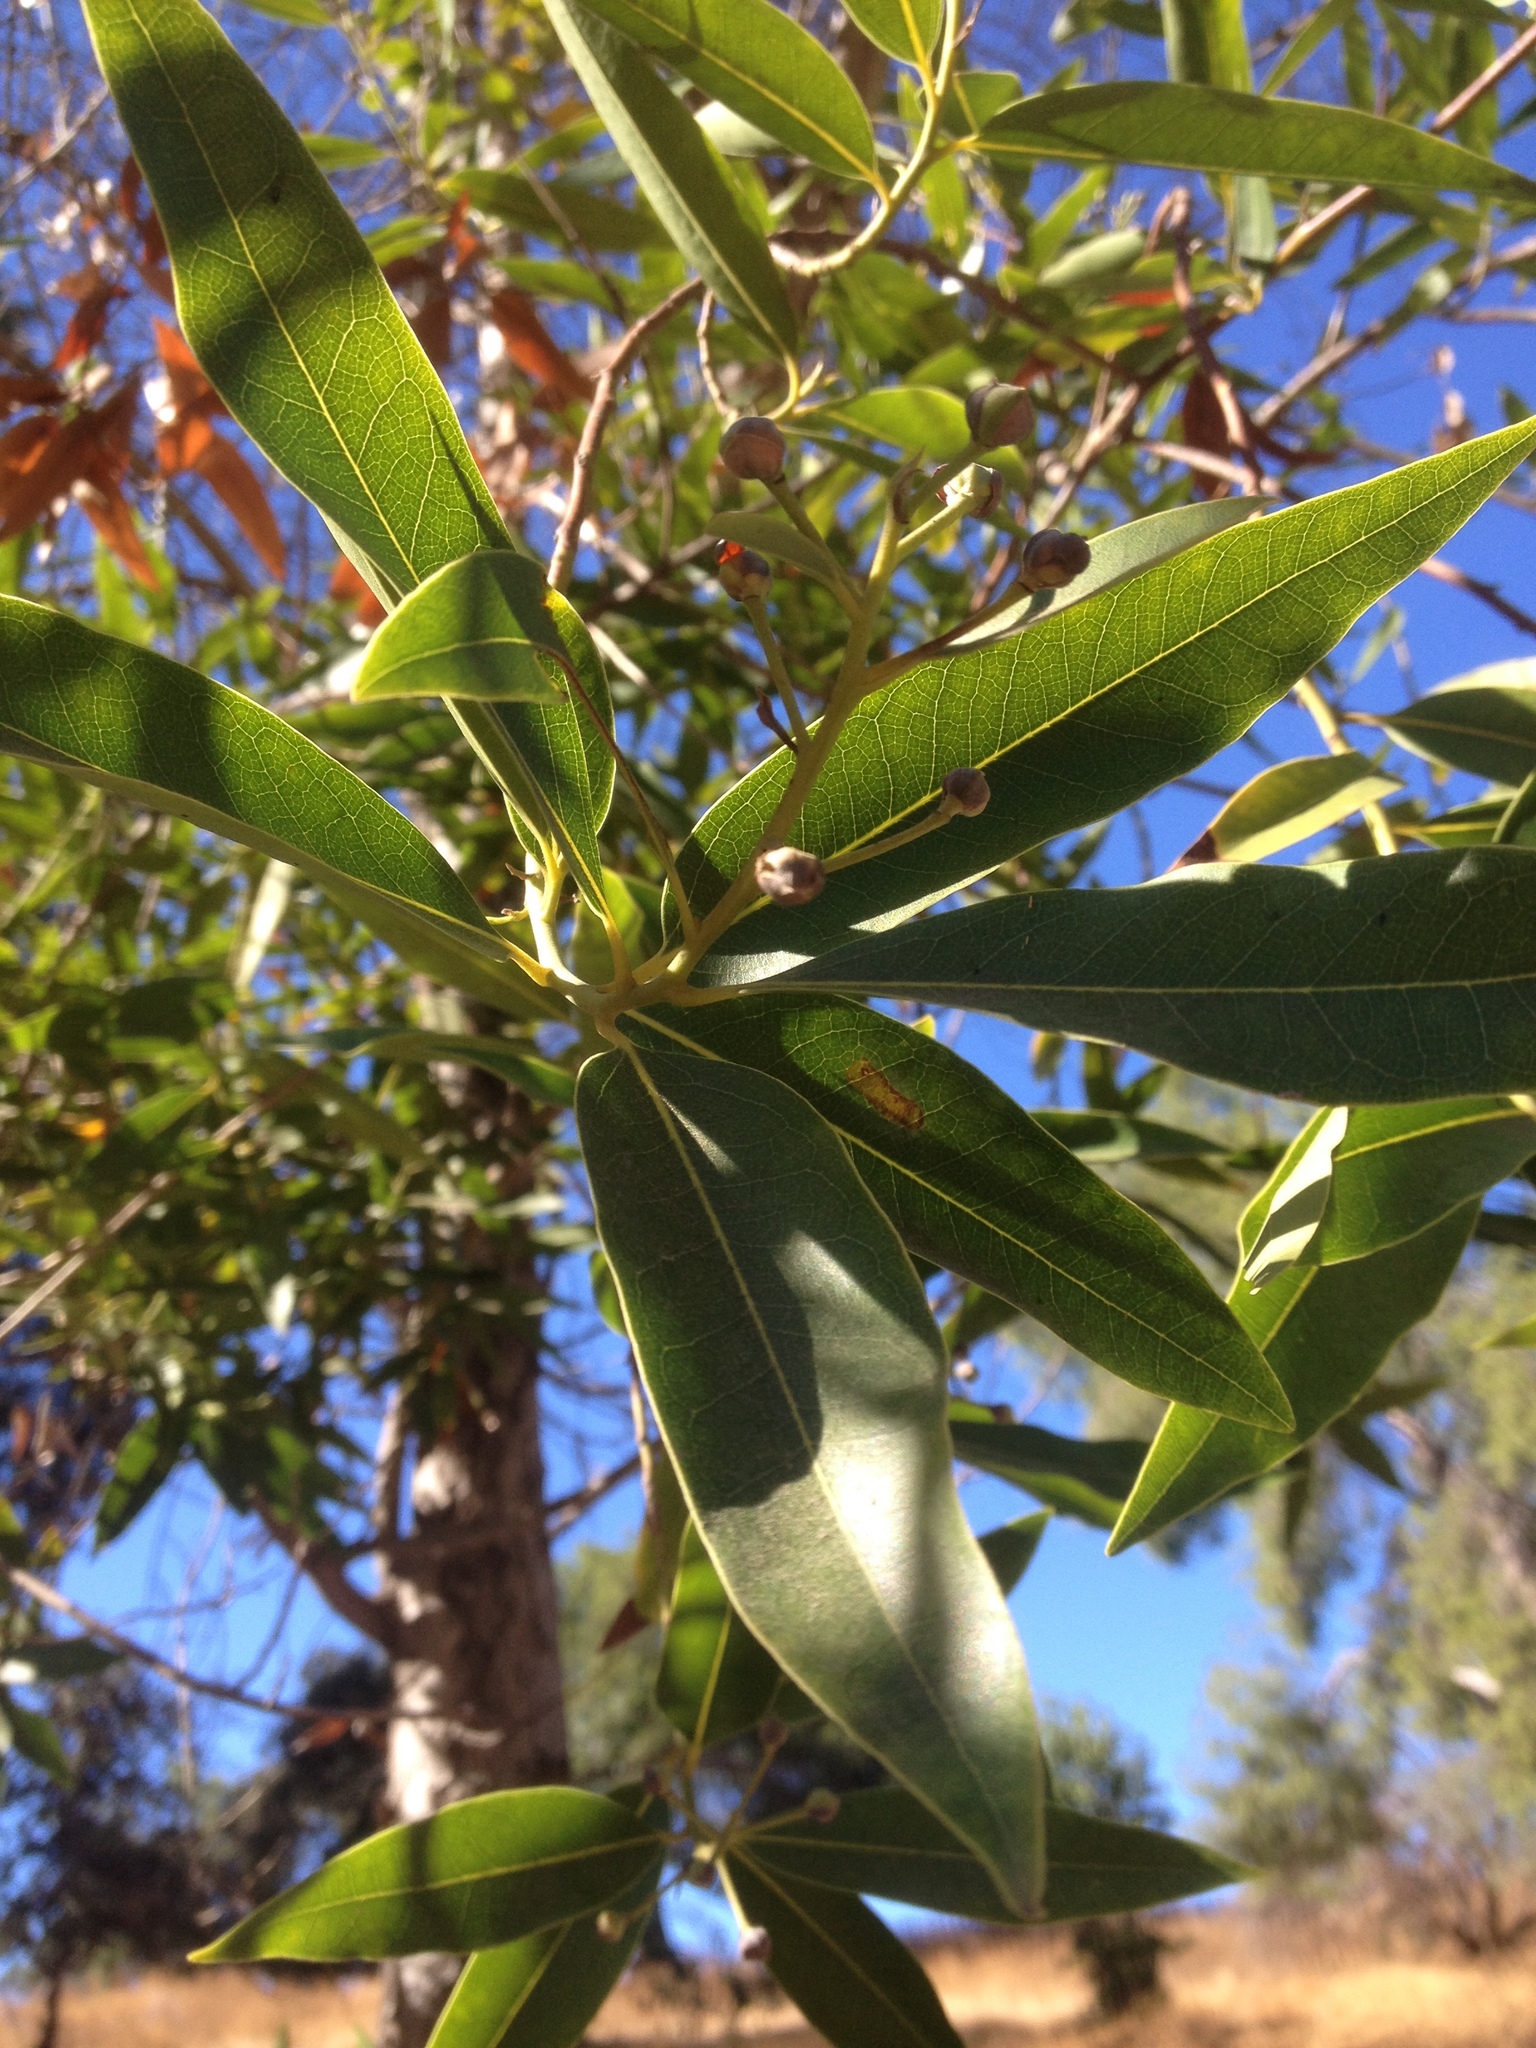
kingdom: Plantae
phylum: Tracheophyta
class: Magnoliopsida
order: Laurales
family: Lauraceae
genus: Umbellularia
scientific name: Umbellularia californica
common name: California bay
